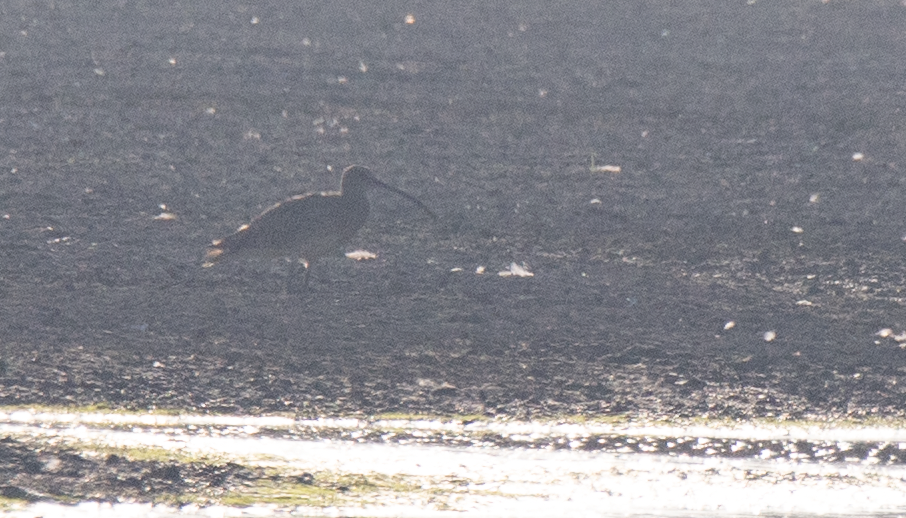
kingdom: Animalia
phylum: Chordata
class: Aves
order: Charadriiformes
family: Scolopacidae
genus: Numenius
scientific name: Numenius arquata
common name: Eurasian curlew
